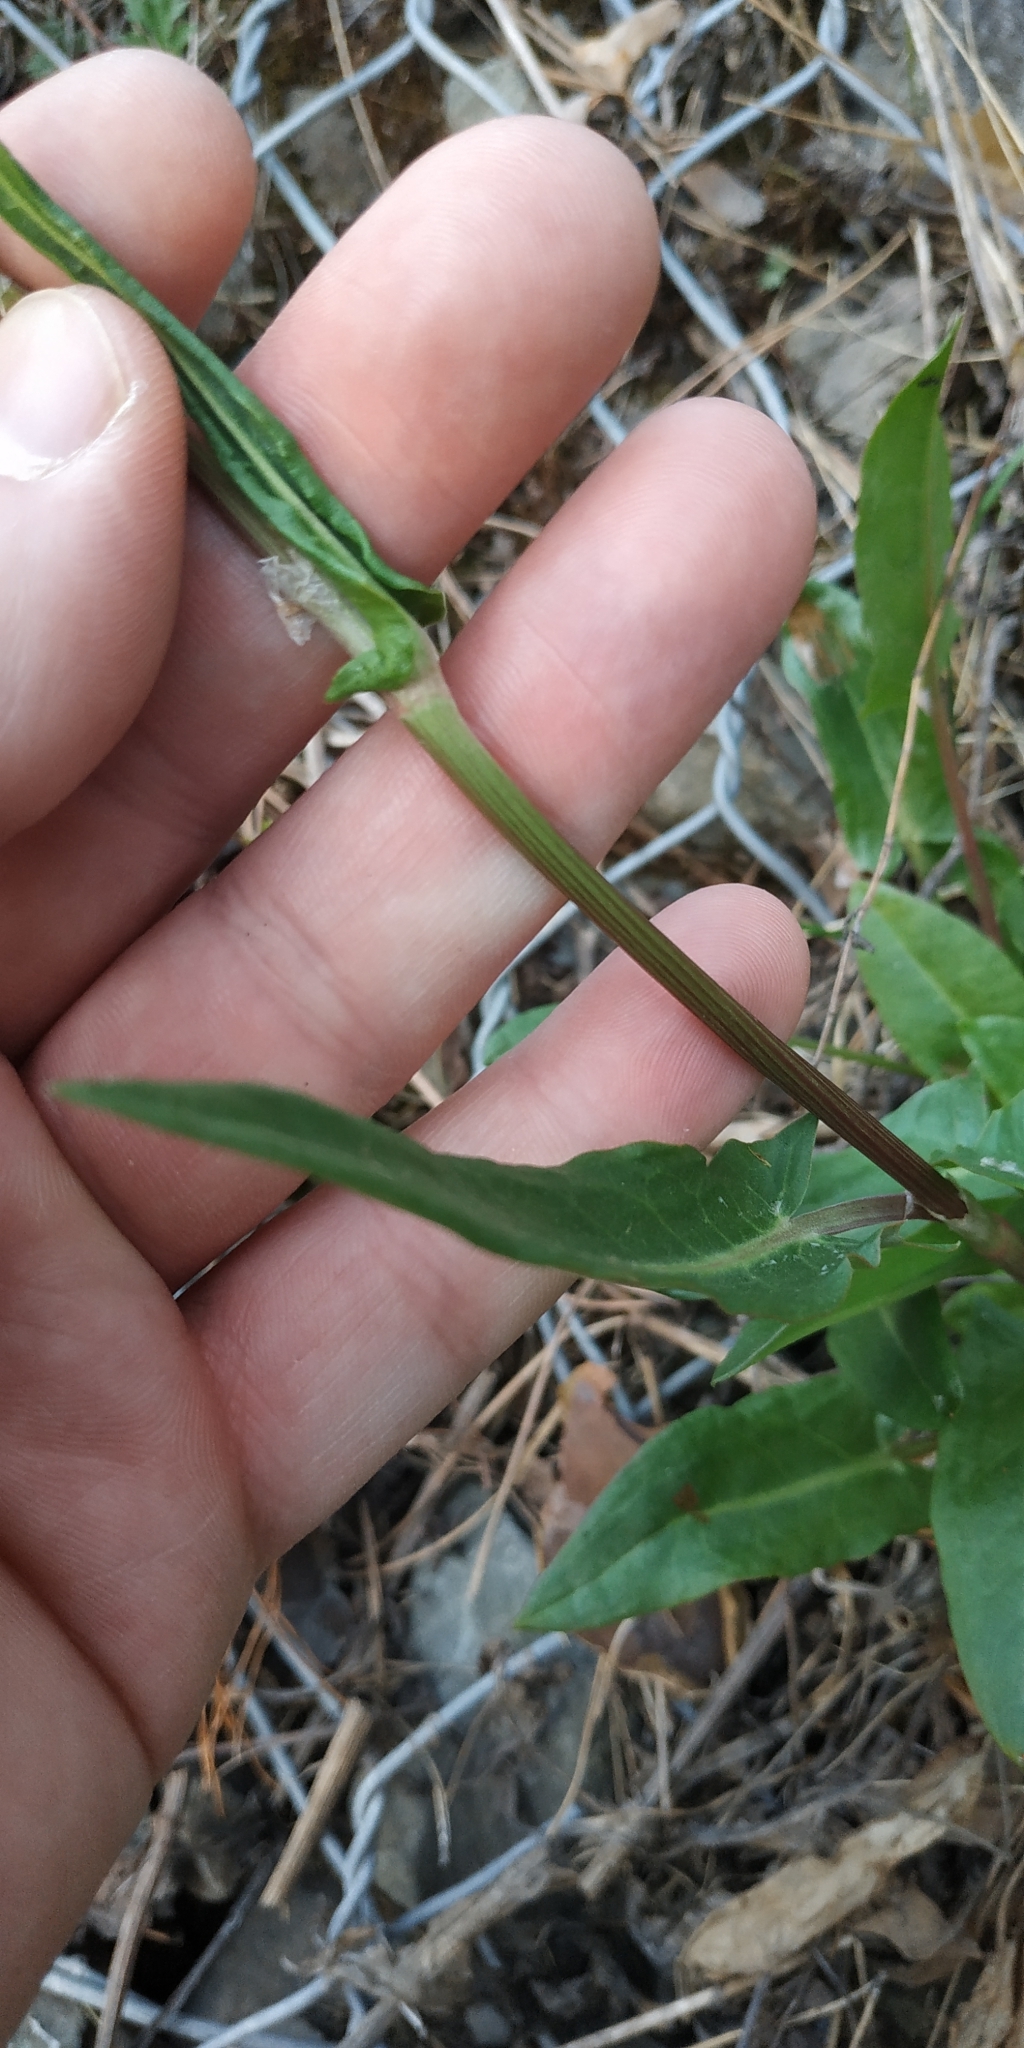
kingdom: Plantae
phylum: Tracheophyta
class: Magnoliopsida
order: Caryophyllales
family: Polygonaceae
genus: Rumex
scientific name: Rumex thyrsiflorus
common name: Garden sorrel
